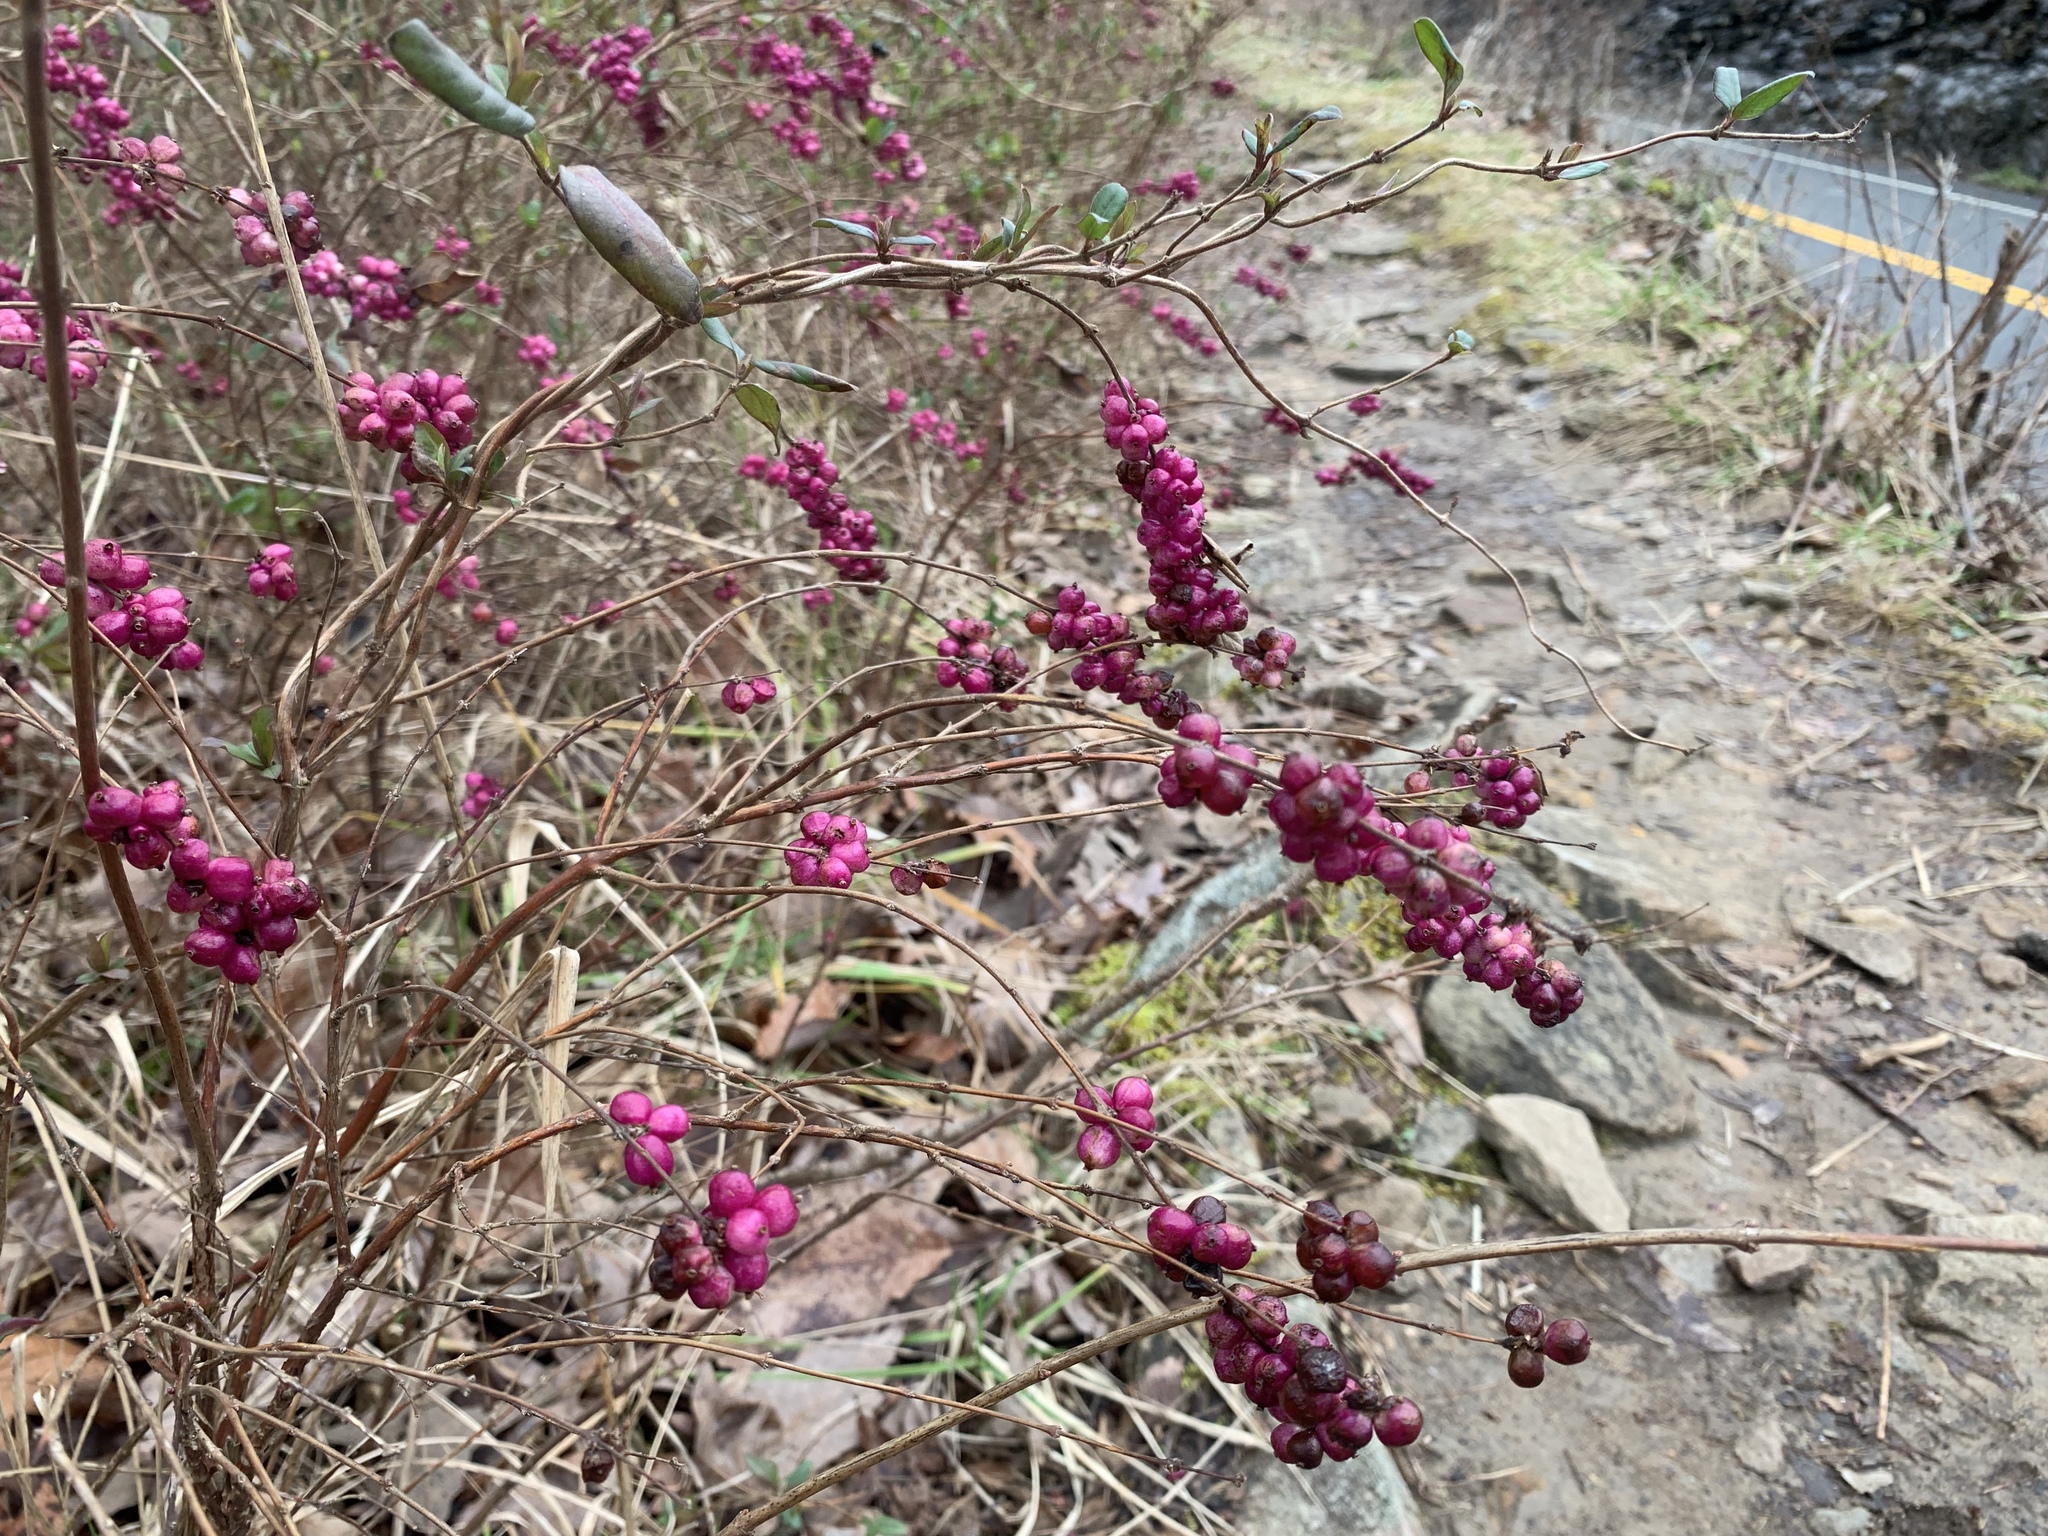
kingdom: Plantae
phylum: Tracheophyta
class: Magnoliopsida
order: Dipsacales
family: Caprifoliaceae
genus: Symphoricarpos
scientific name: Symphoricarpos orbiculatus
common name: Coralberry
